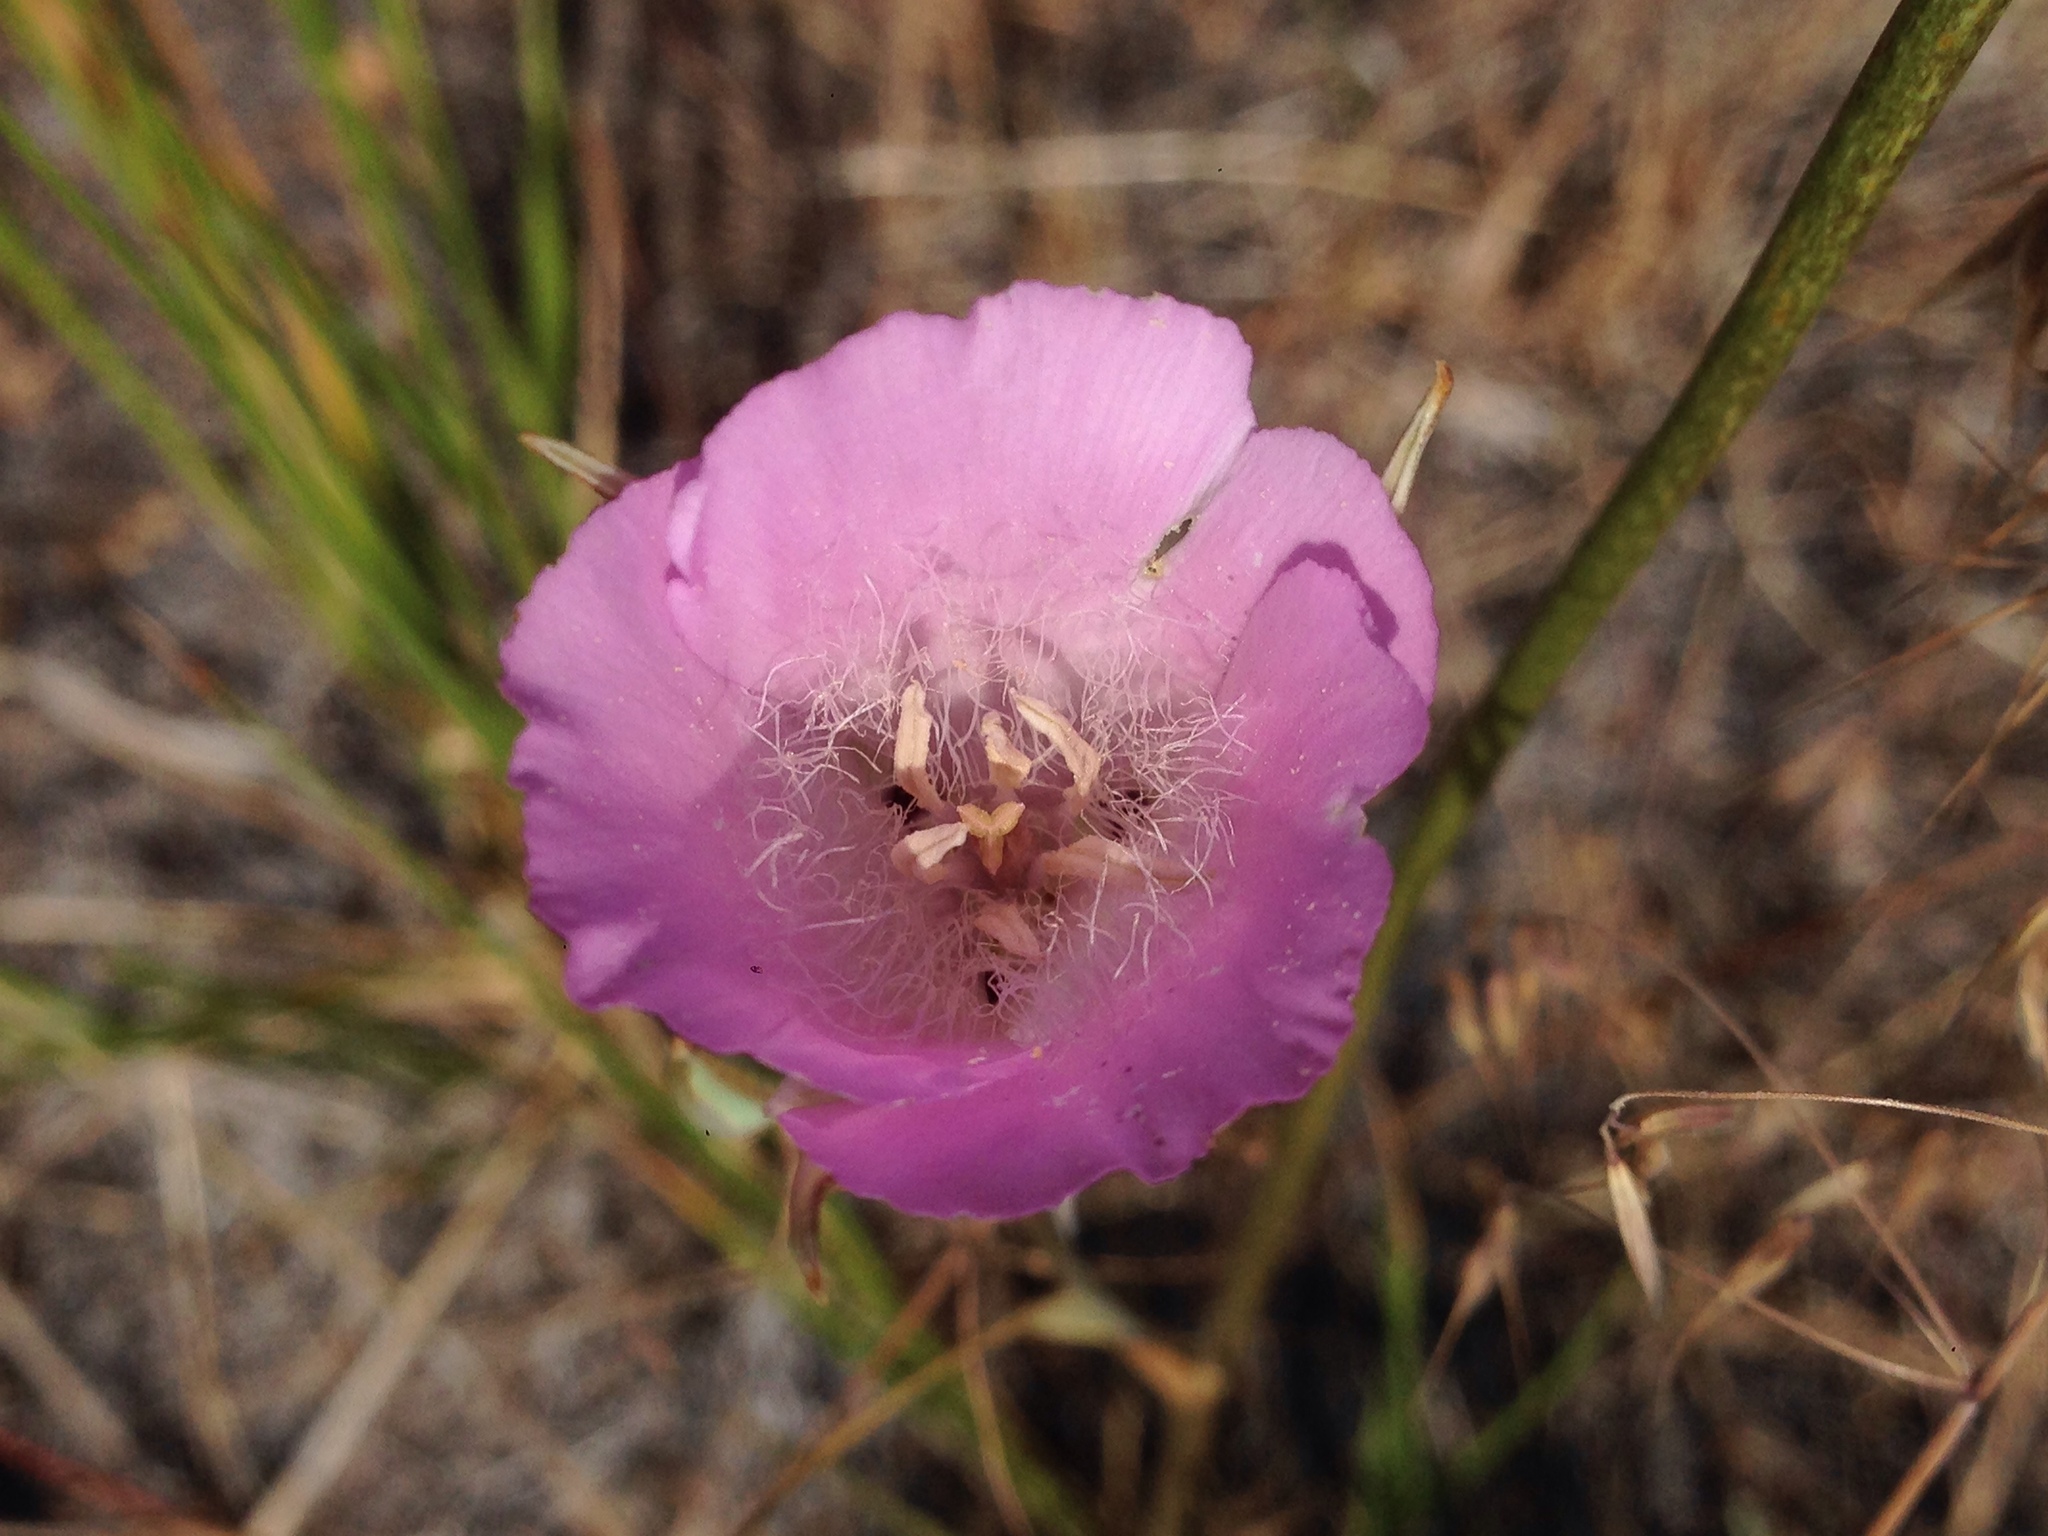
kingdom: Plantae
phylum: Tracheophyta
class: Liliopsida
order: Liliales
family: Liliaceae
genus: Calochortus
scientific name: Calochortus splendens
